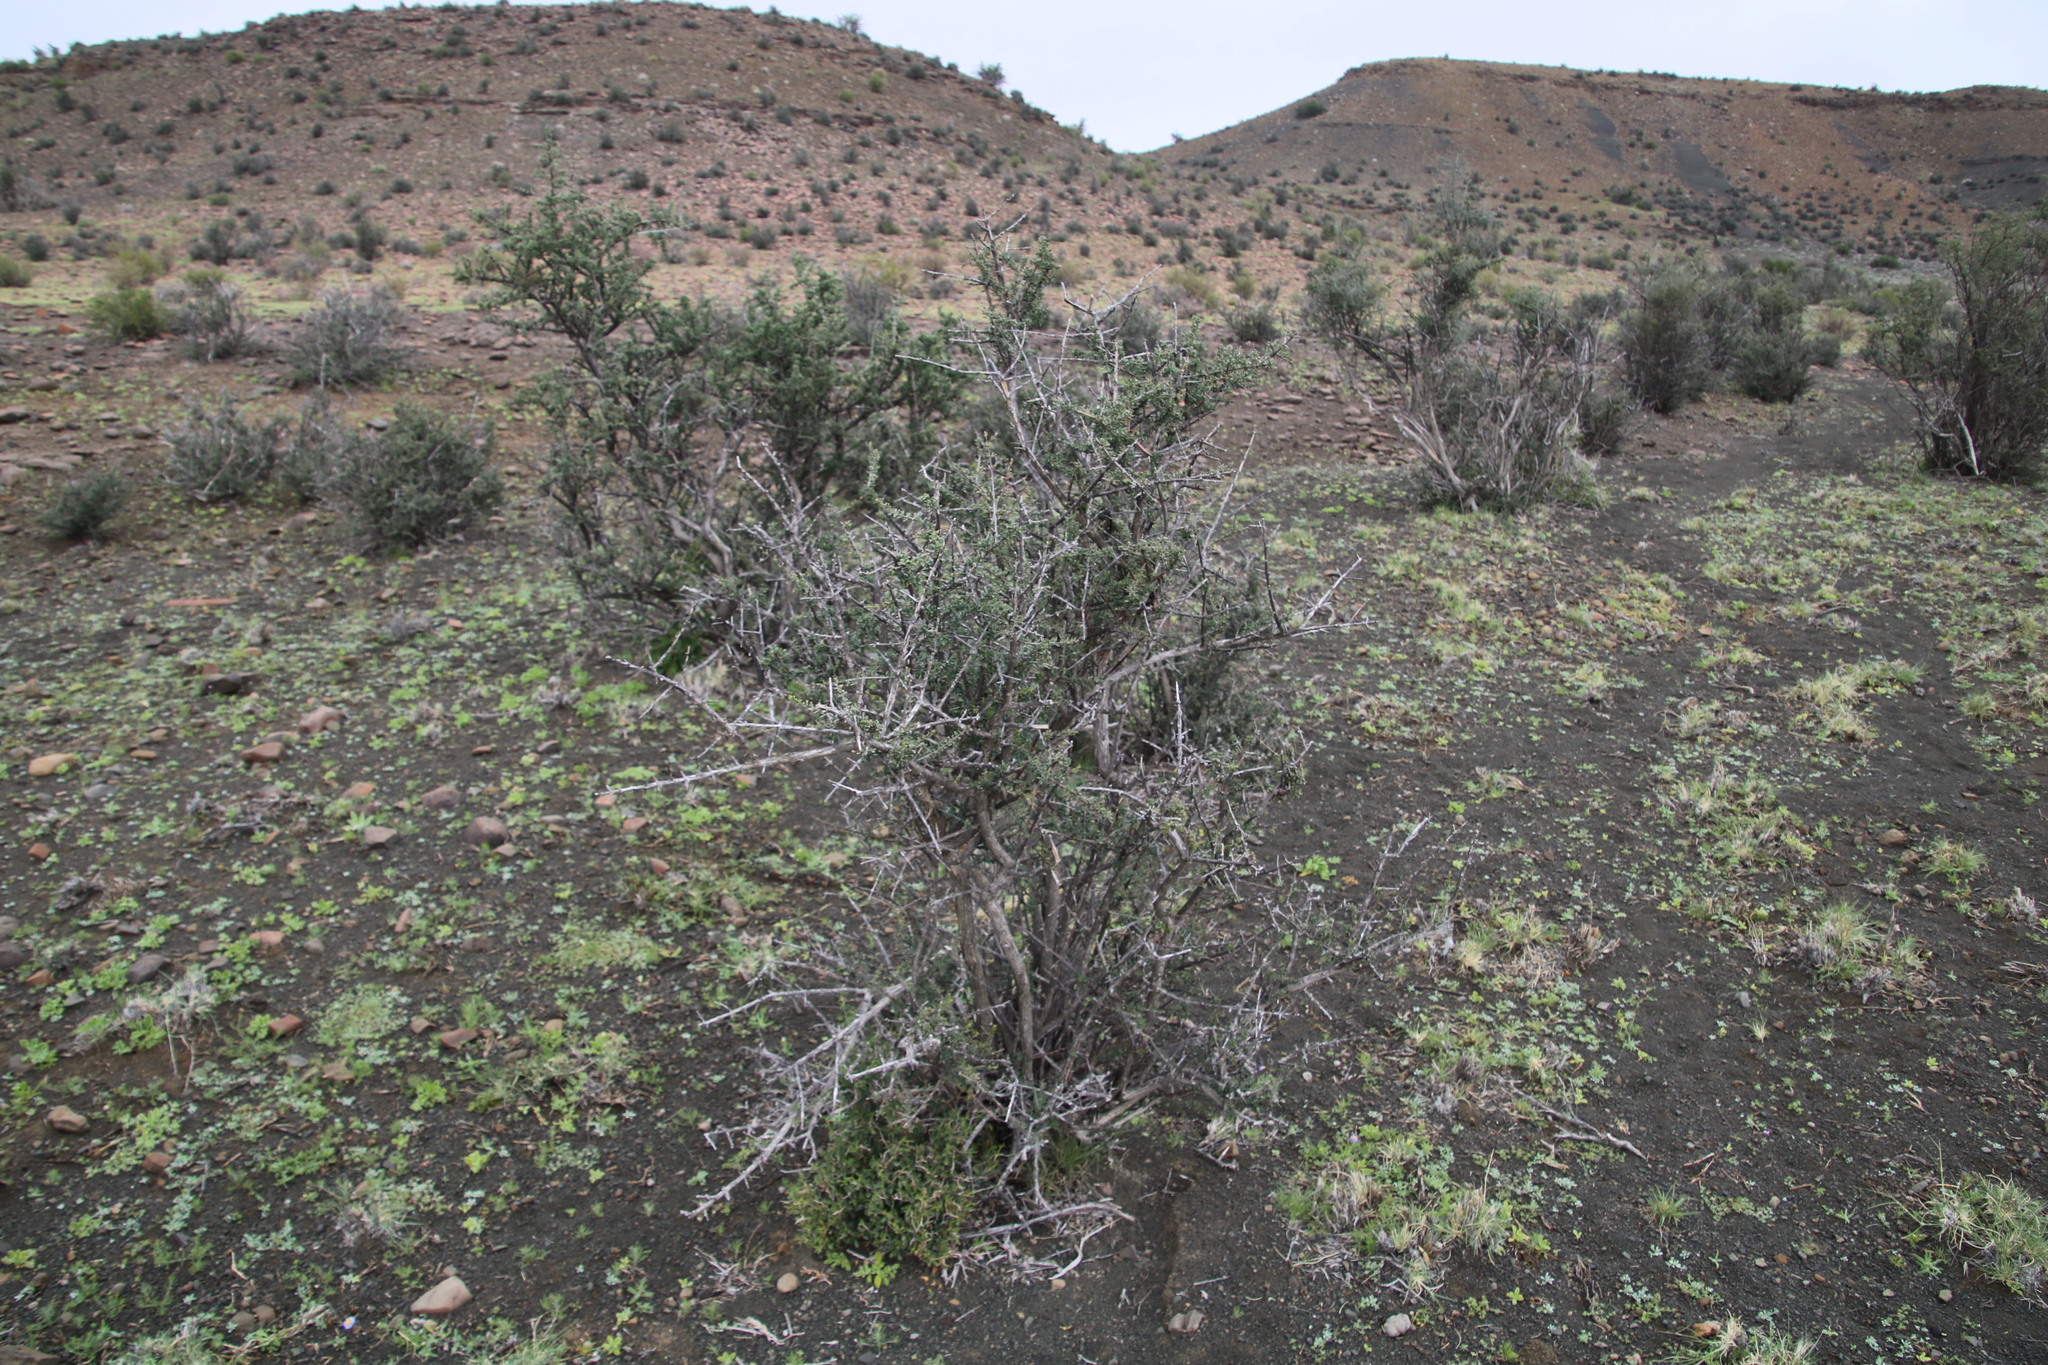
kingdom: Plantae
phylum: Tracheophyta
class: Magnoliopsida
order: Lamiales
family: Bignoniaceae
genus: Rhigozum
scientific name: Rhigozum obovatum
